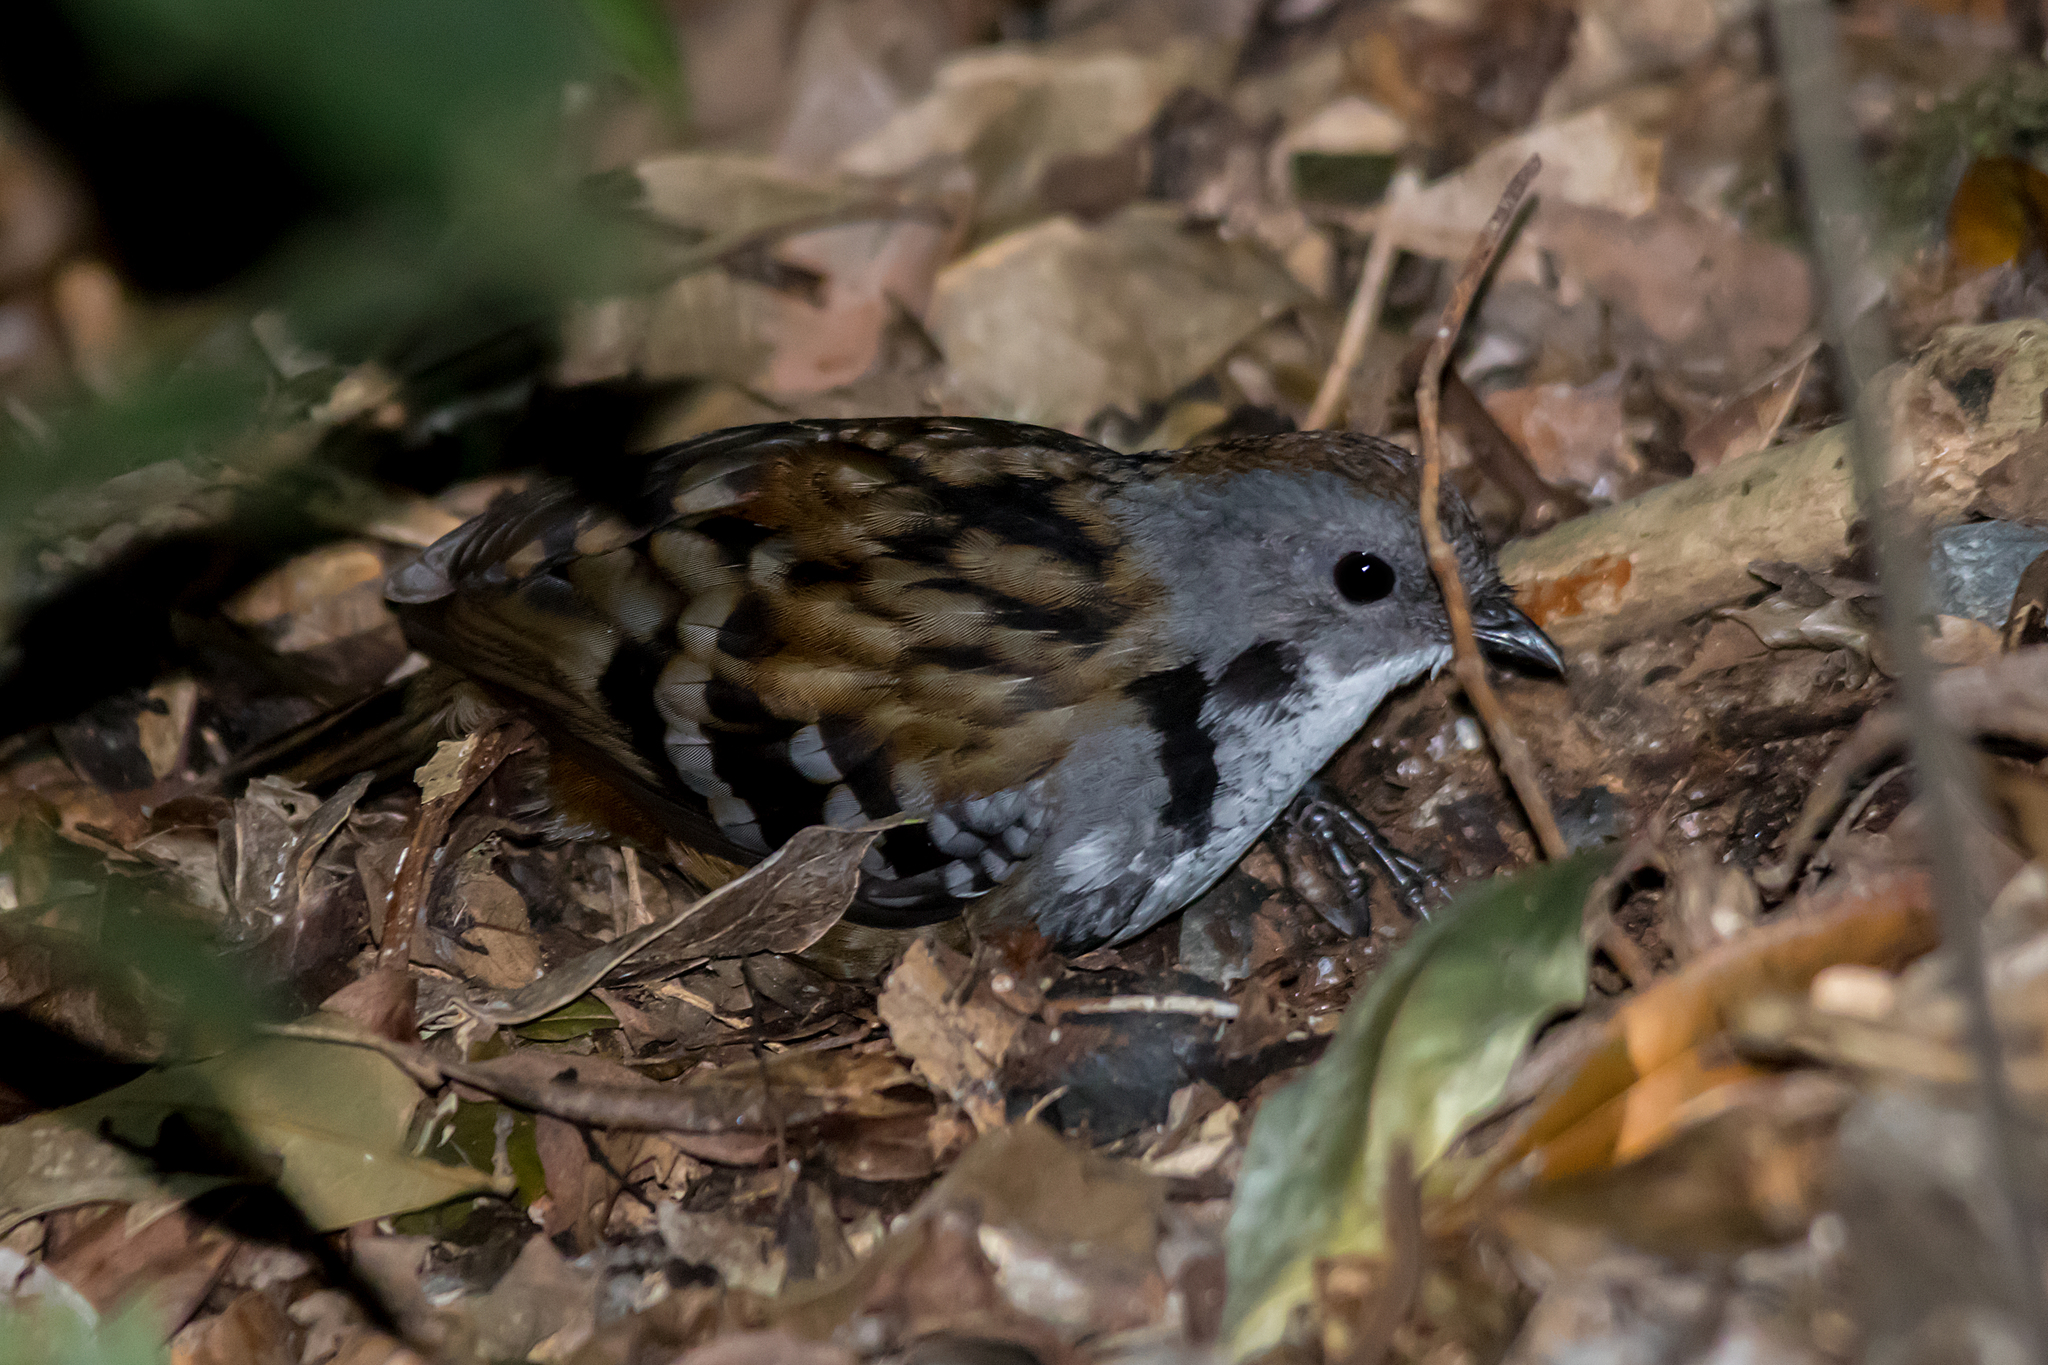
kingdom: Animalia
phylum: Chordata
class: Aves
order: Passeriformes
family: Orthonychidae
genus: Orthonyx
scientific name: Orthonyx temminckii
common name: Australian logrunner
